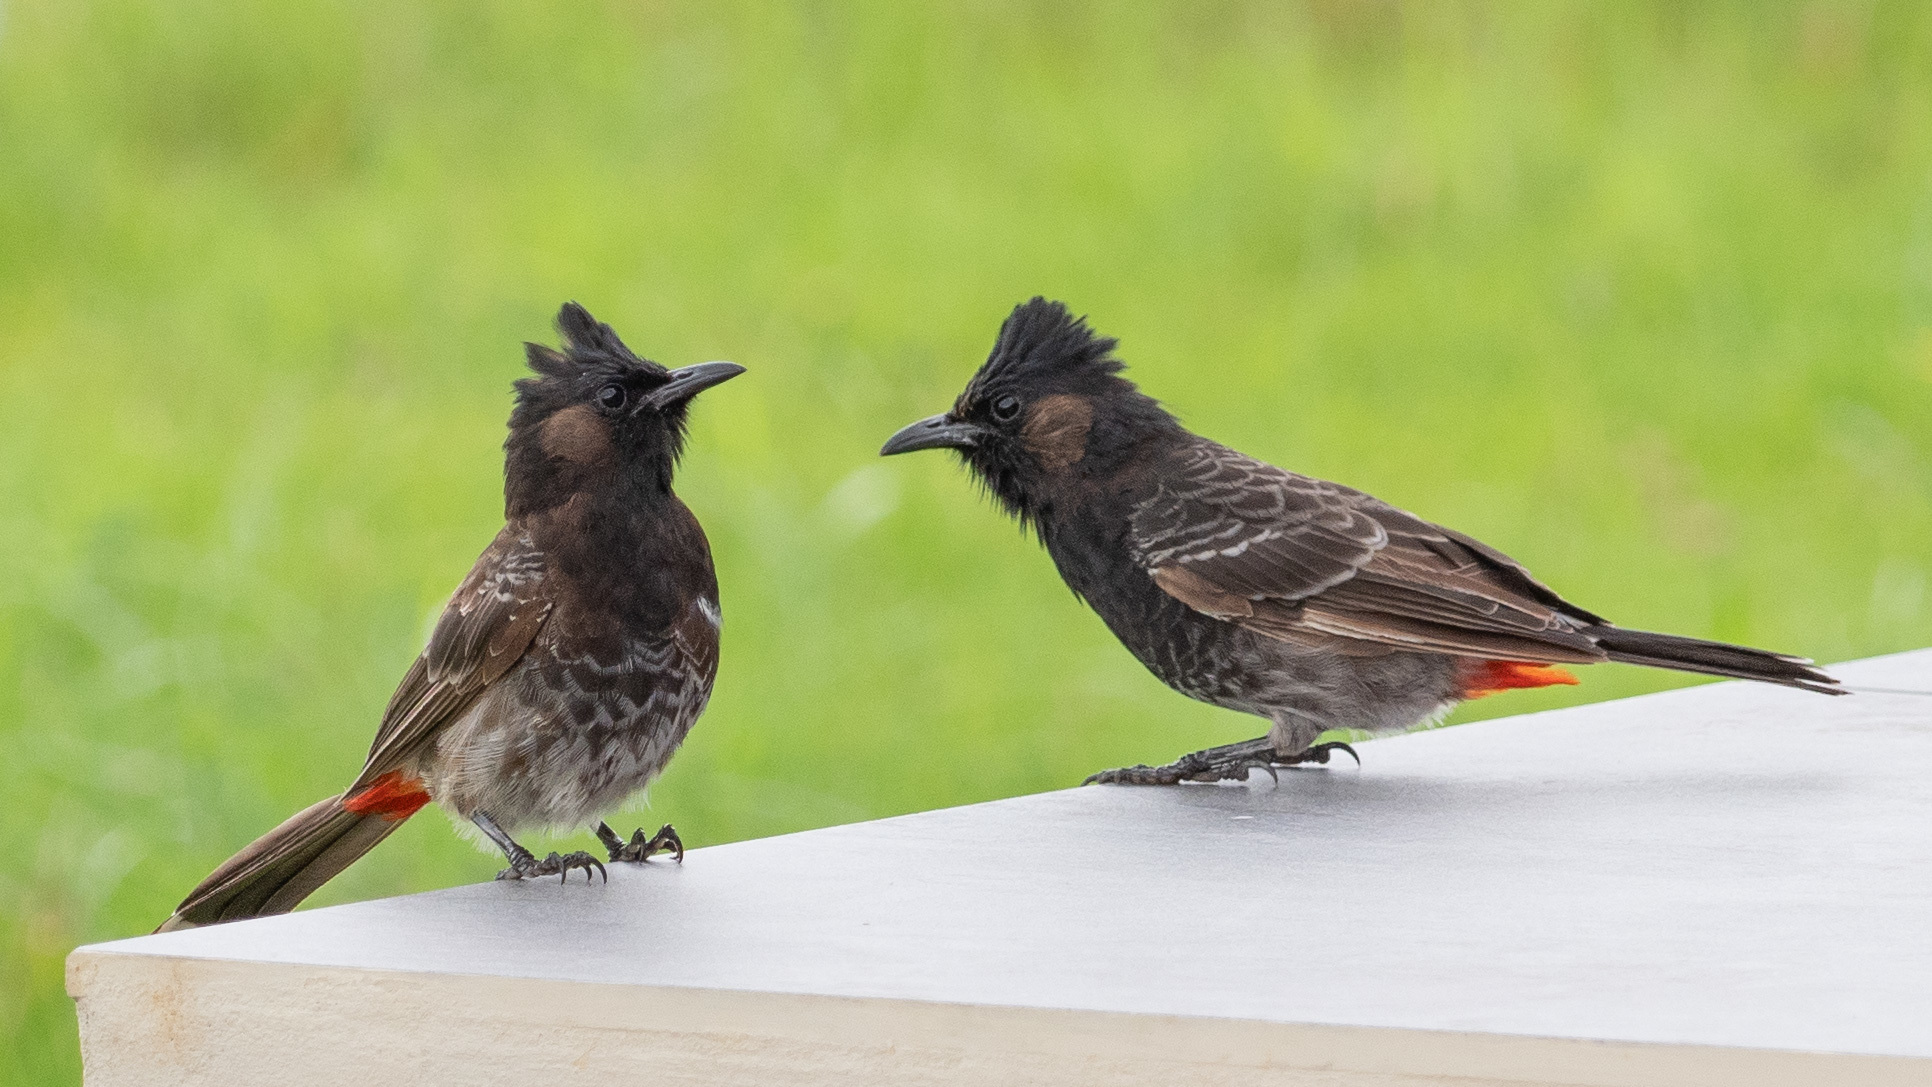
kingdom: Animalia
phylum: Chordata
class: Aves
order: Passeriformes
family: Pycnonotidae
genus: Pycnonotus
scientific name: Pycnonotus cafer
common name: Red-vented bulbul
